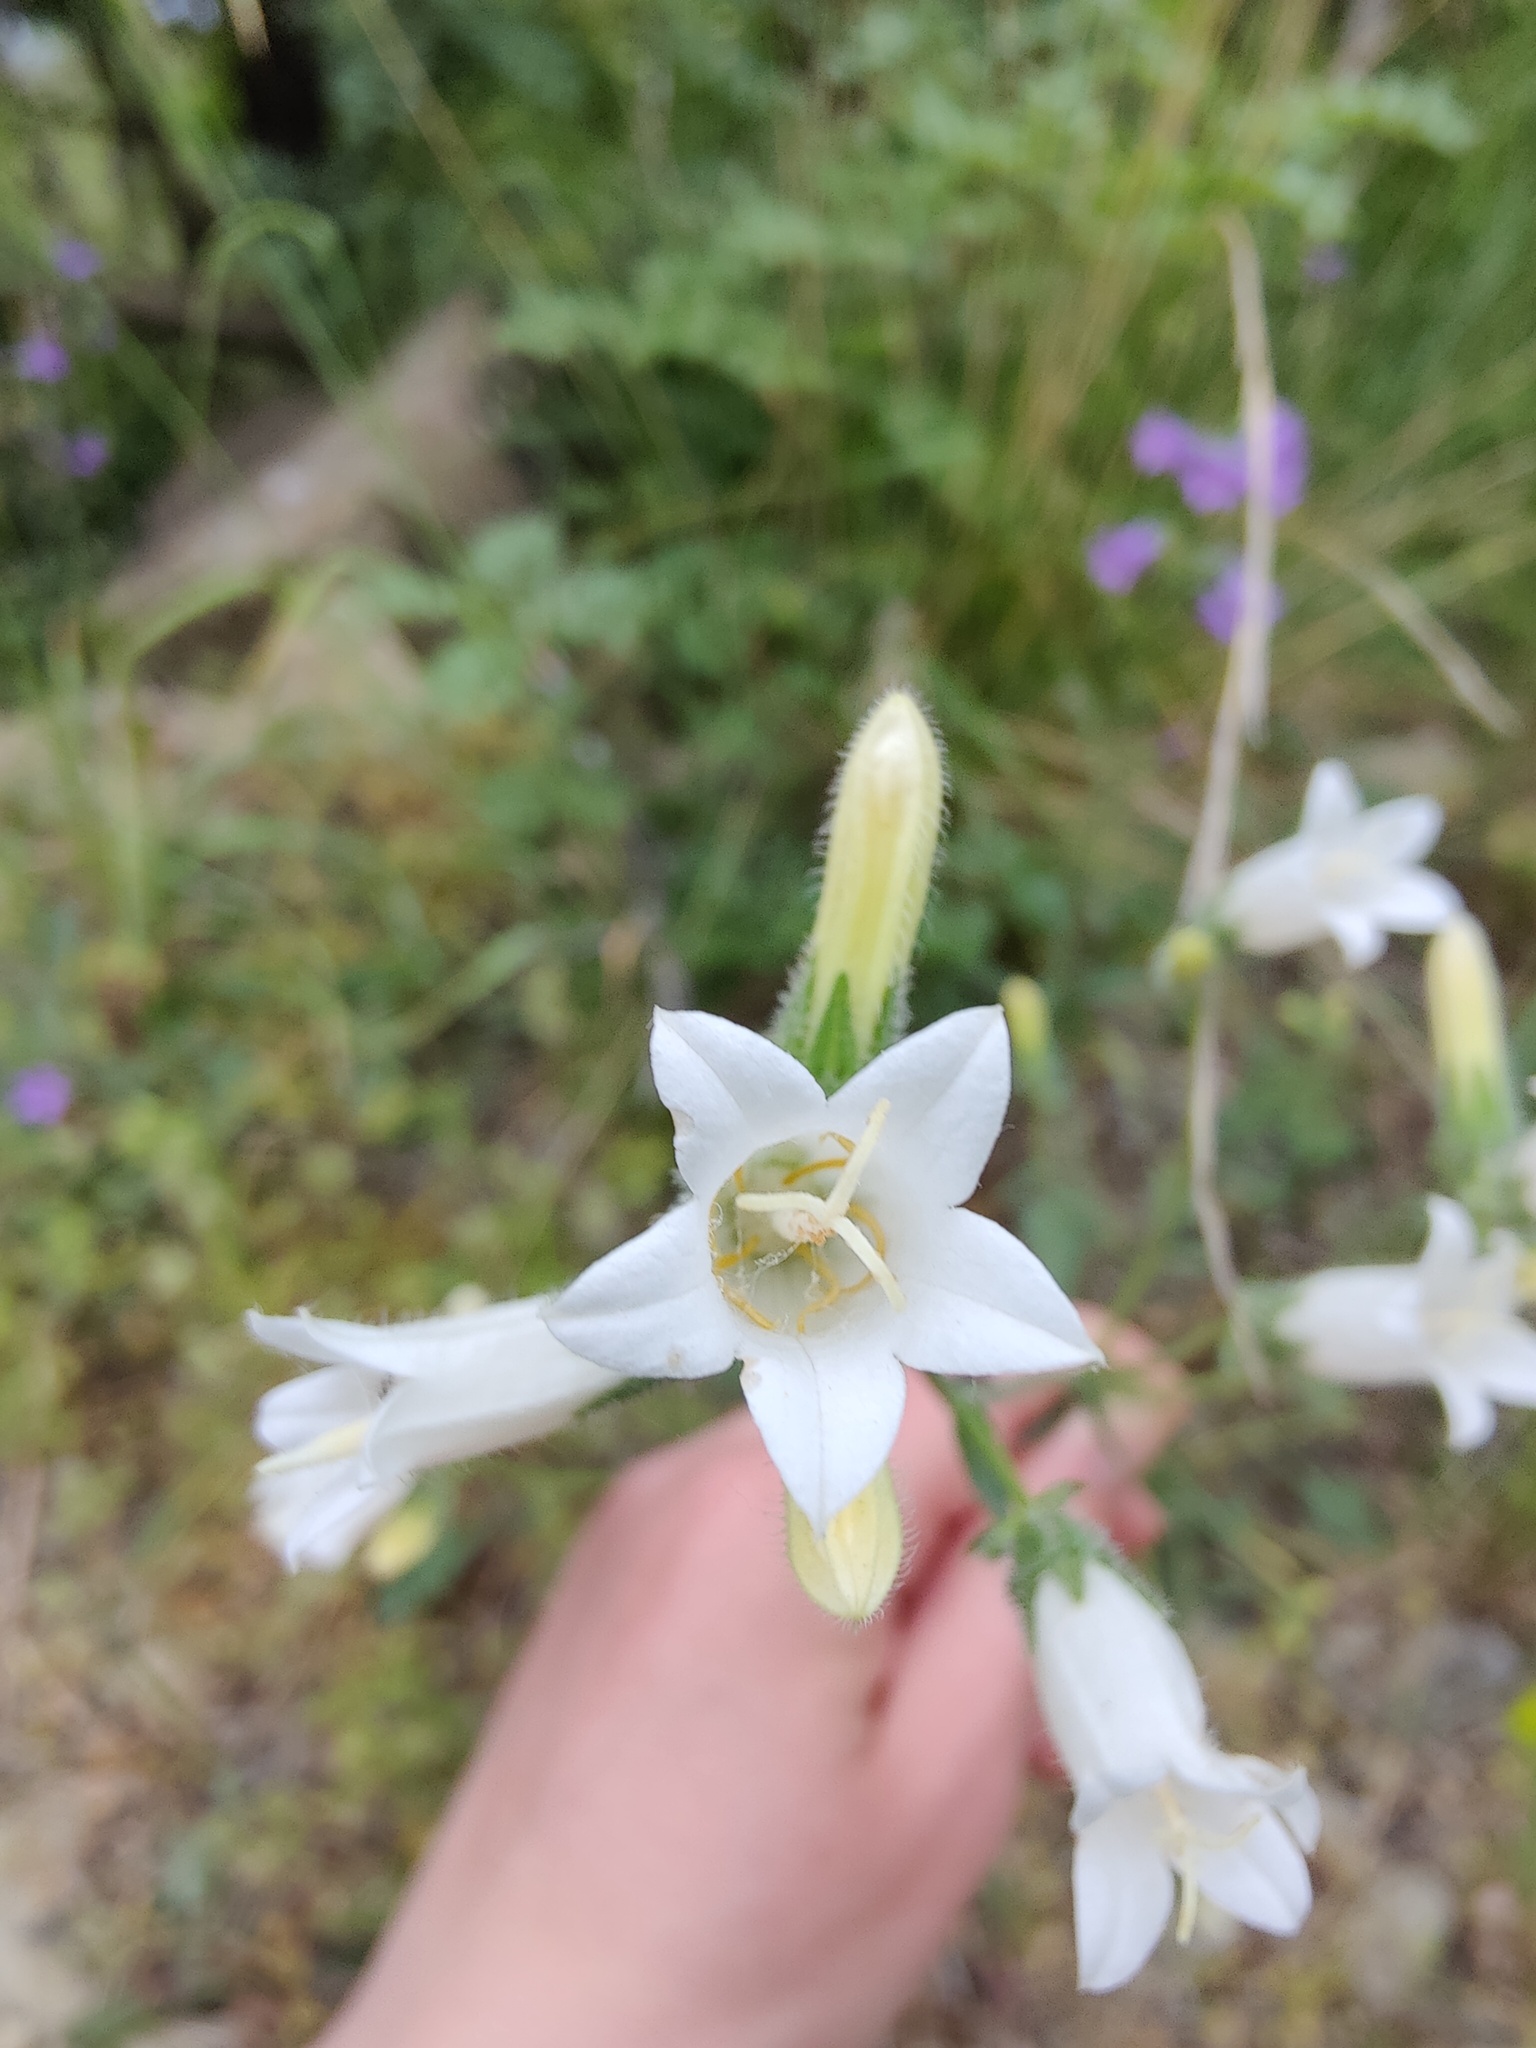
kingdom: Plantae
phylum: Tracheophyta
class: Magnoliopsida
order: Asterales
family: Campanulaceae
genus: Campanula
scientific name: Campanula komarovii
